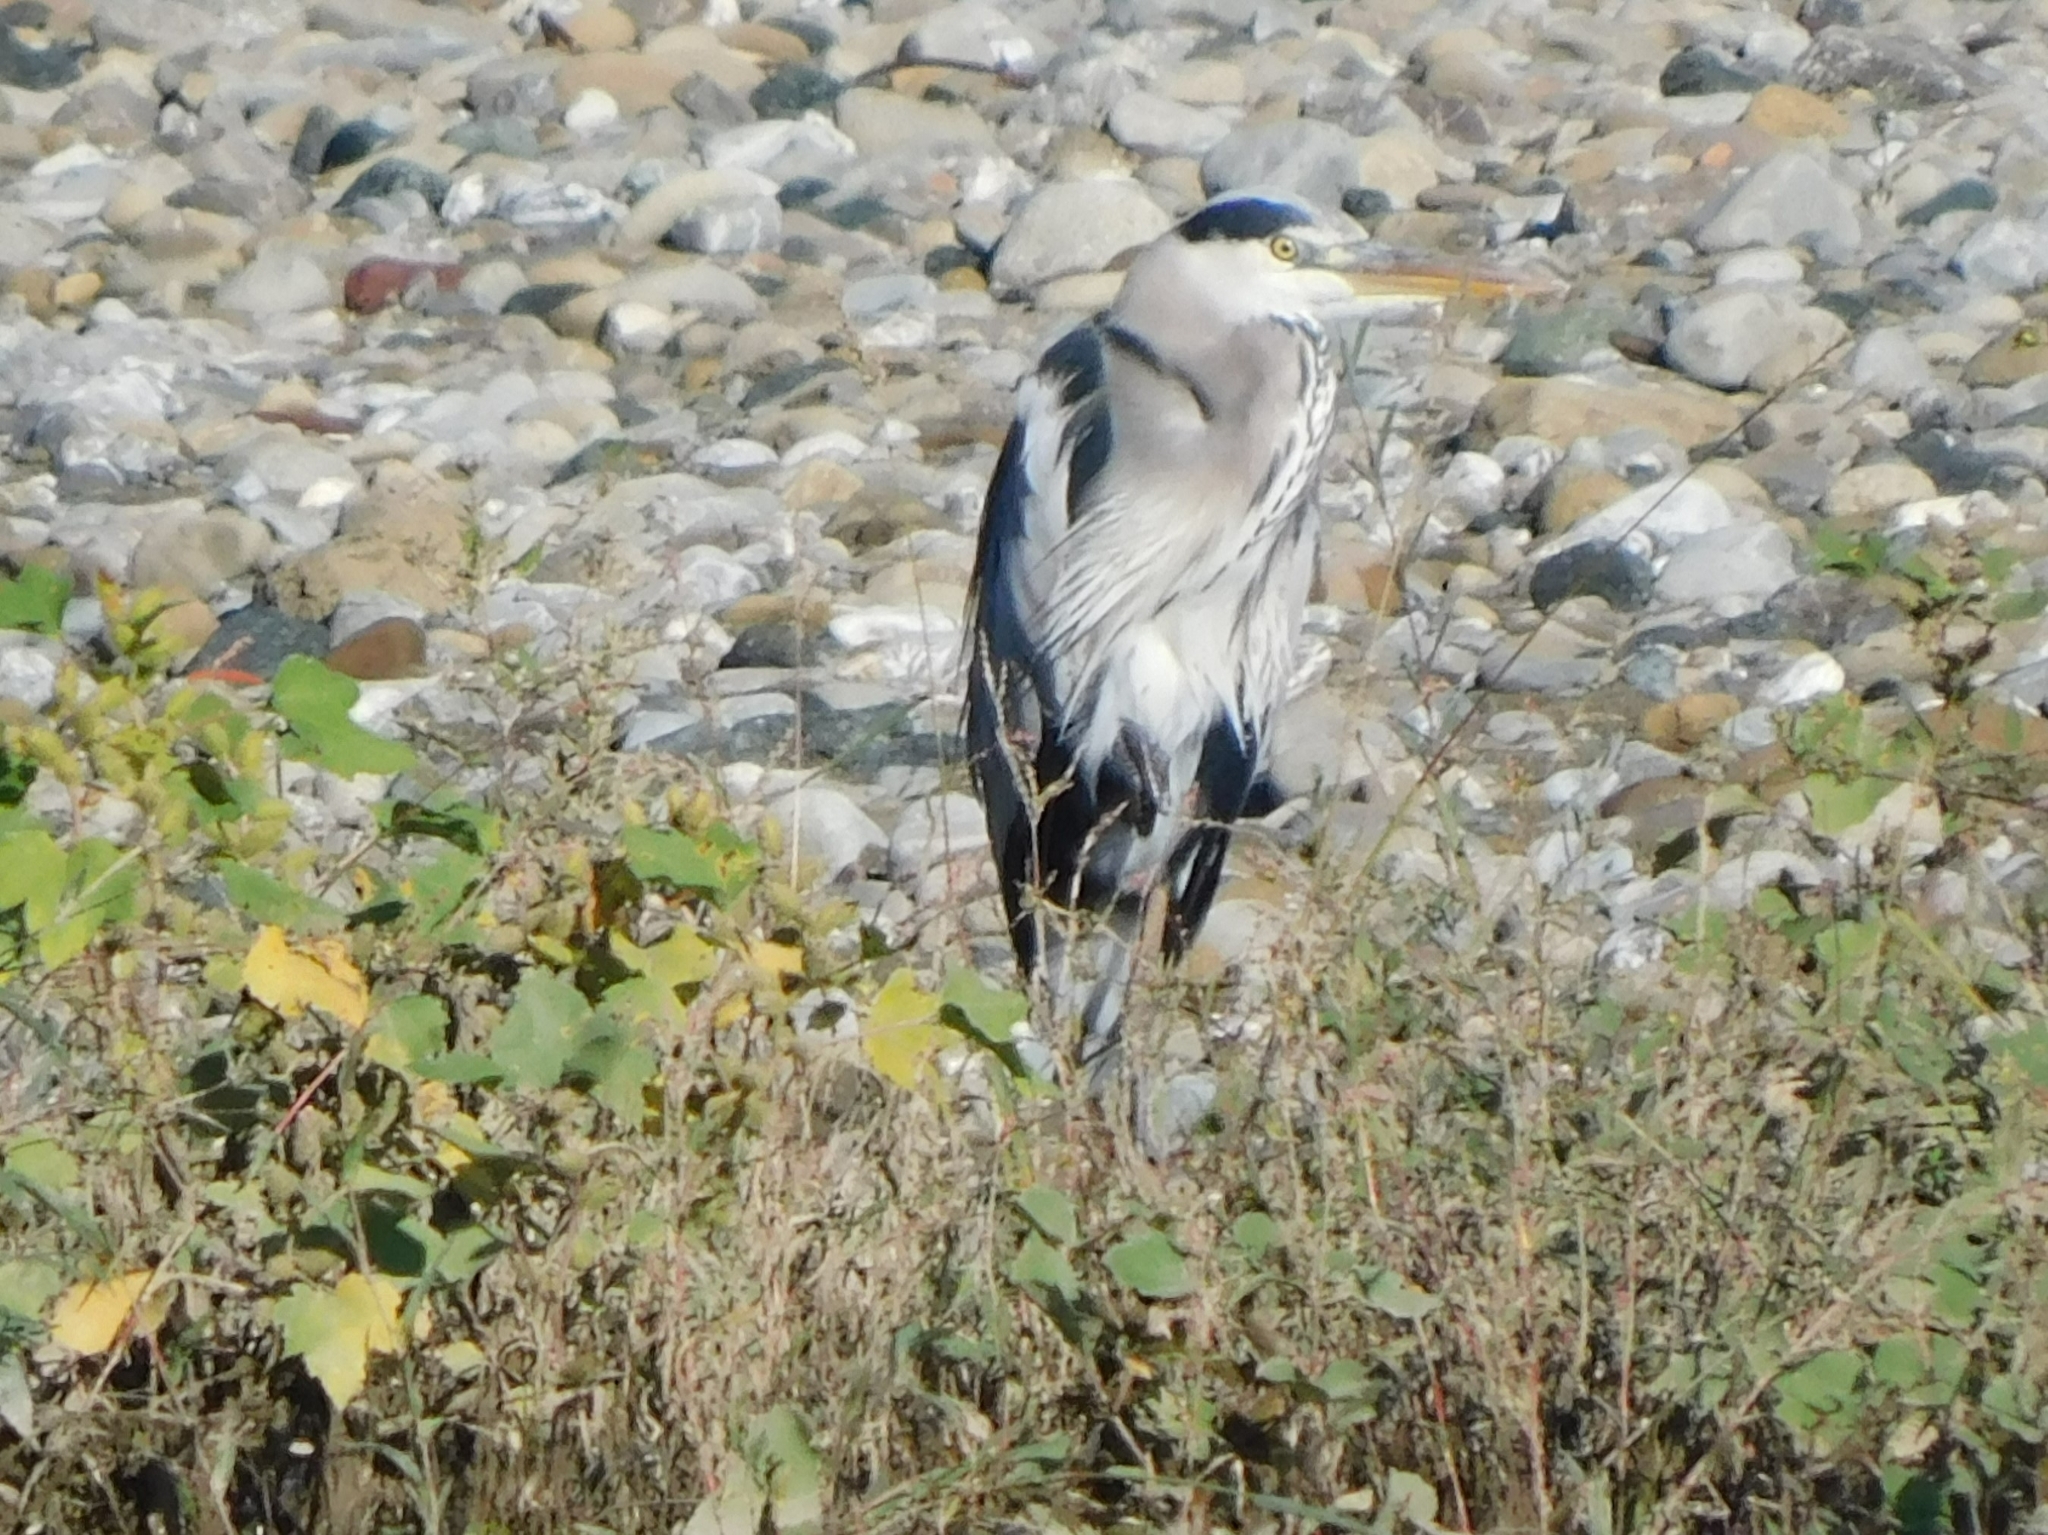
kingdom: Animalia
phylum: Chordata
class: Aves
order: Pelecaniformes
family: Ardeidae
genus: Ardea
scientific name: Ardea cinerea
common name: Grey heron
